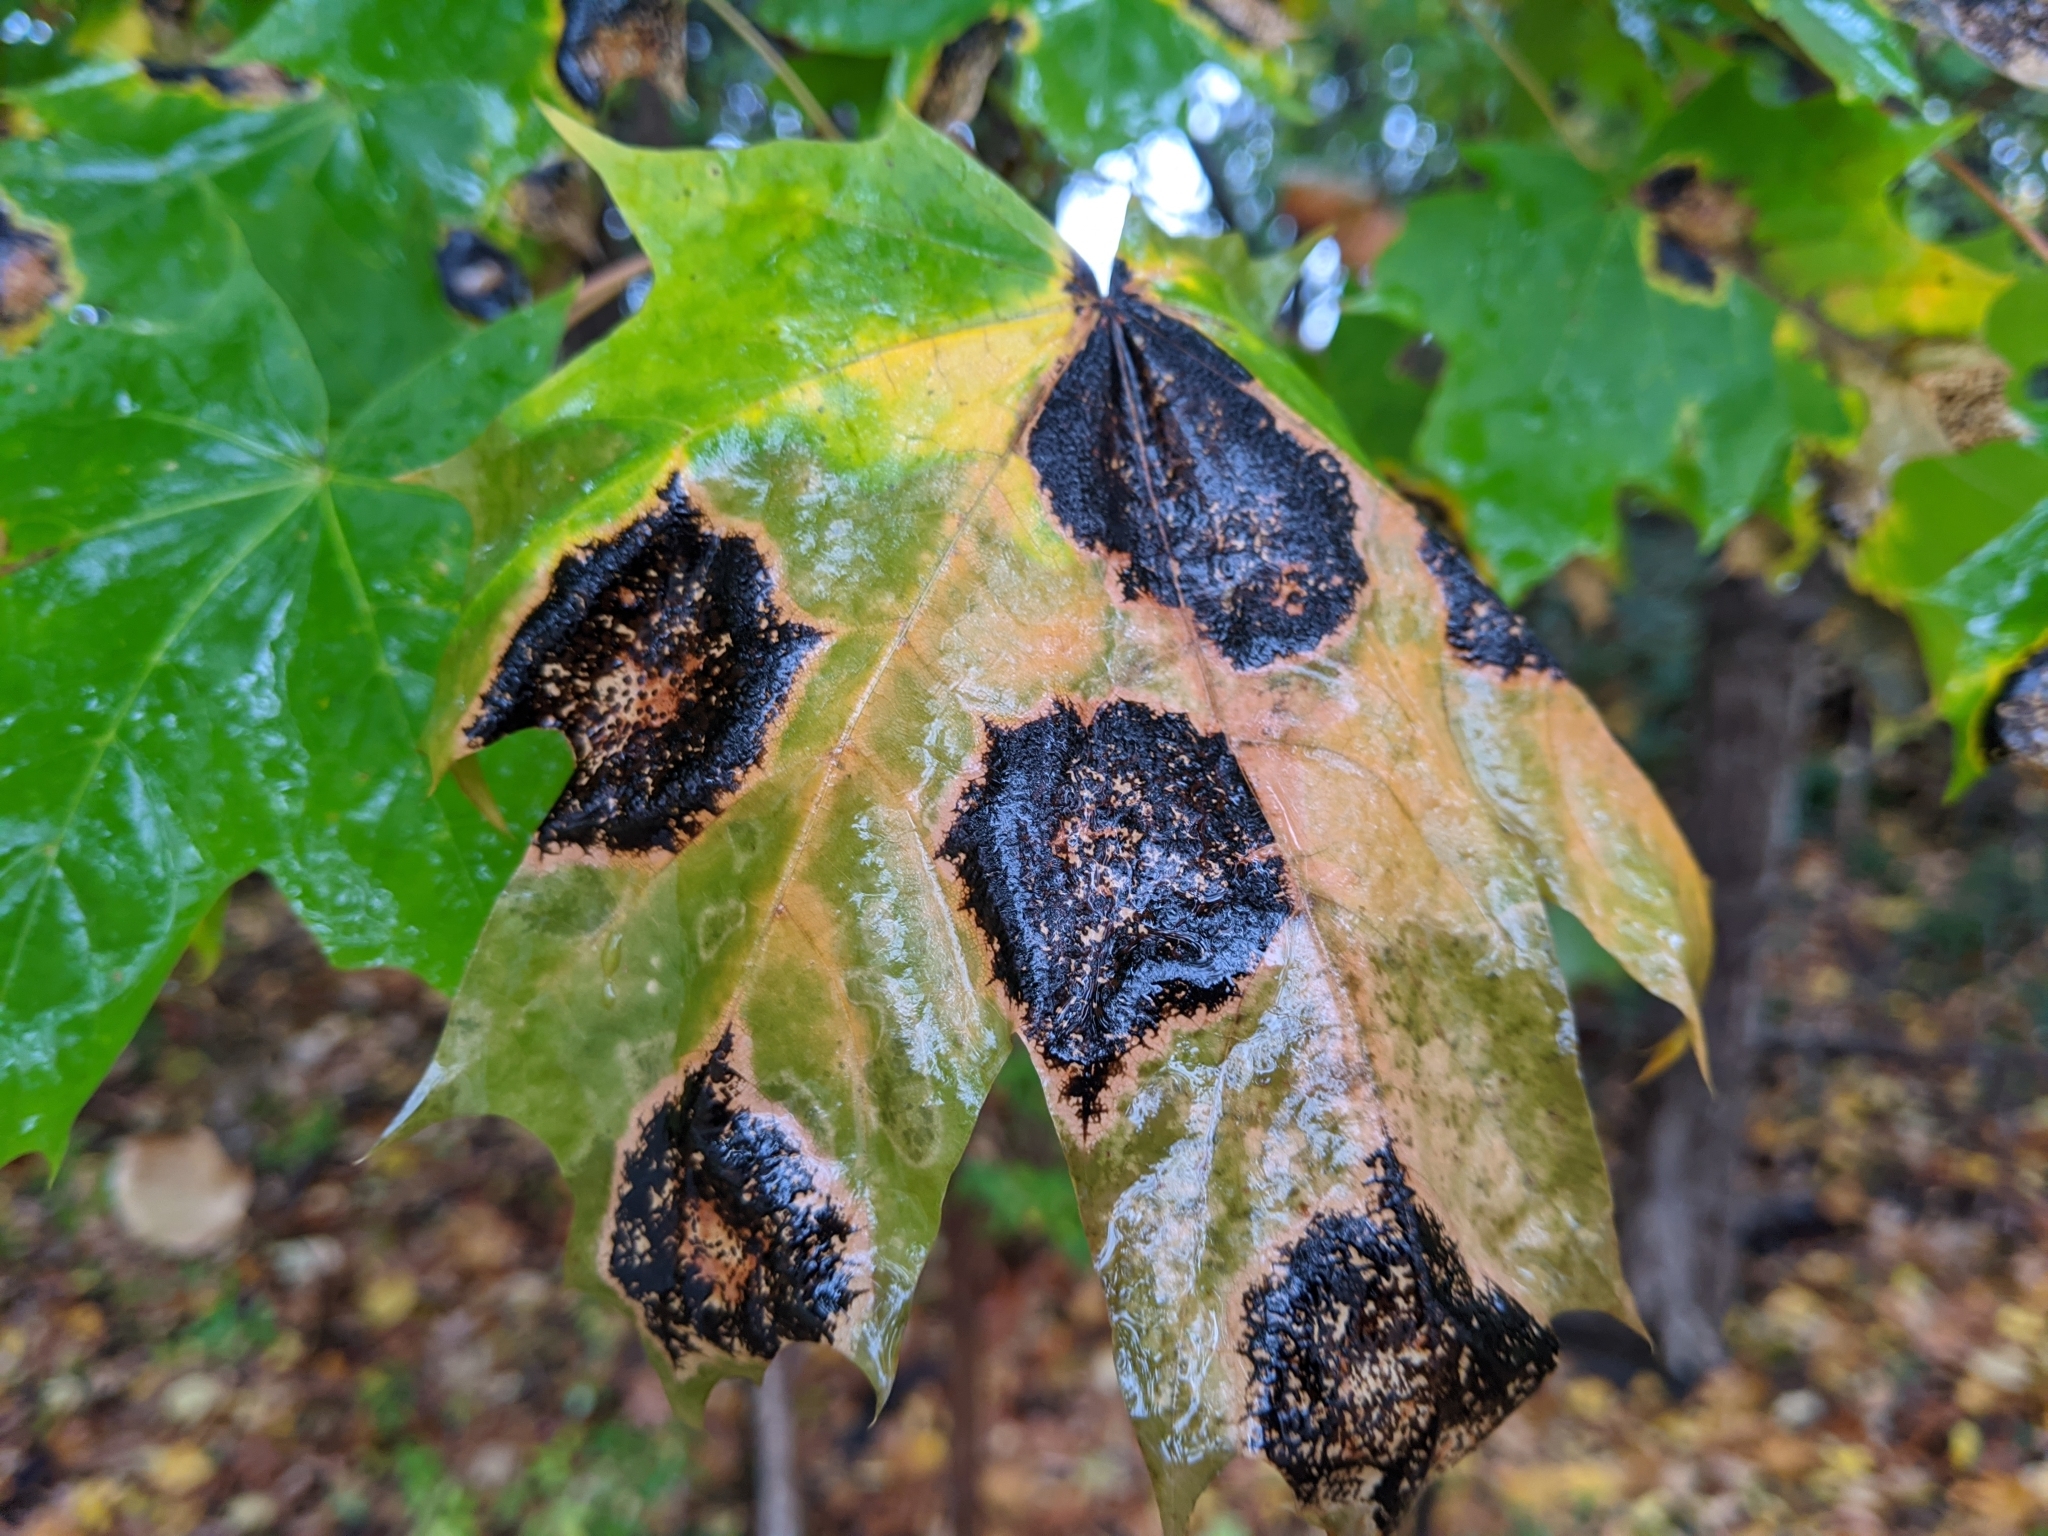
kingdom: Fungi
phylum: Ascomycota
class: Leotiomycetes
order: Rhytismatales
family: Rhytismataceae
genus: Rhytisma
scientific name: Rhytisma acerinum
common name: European tar spot
